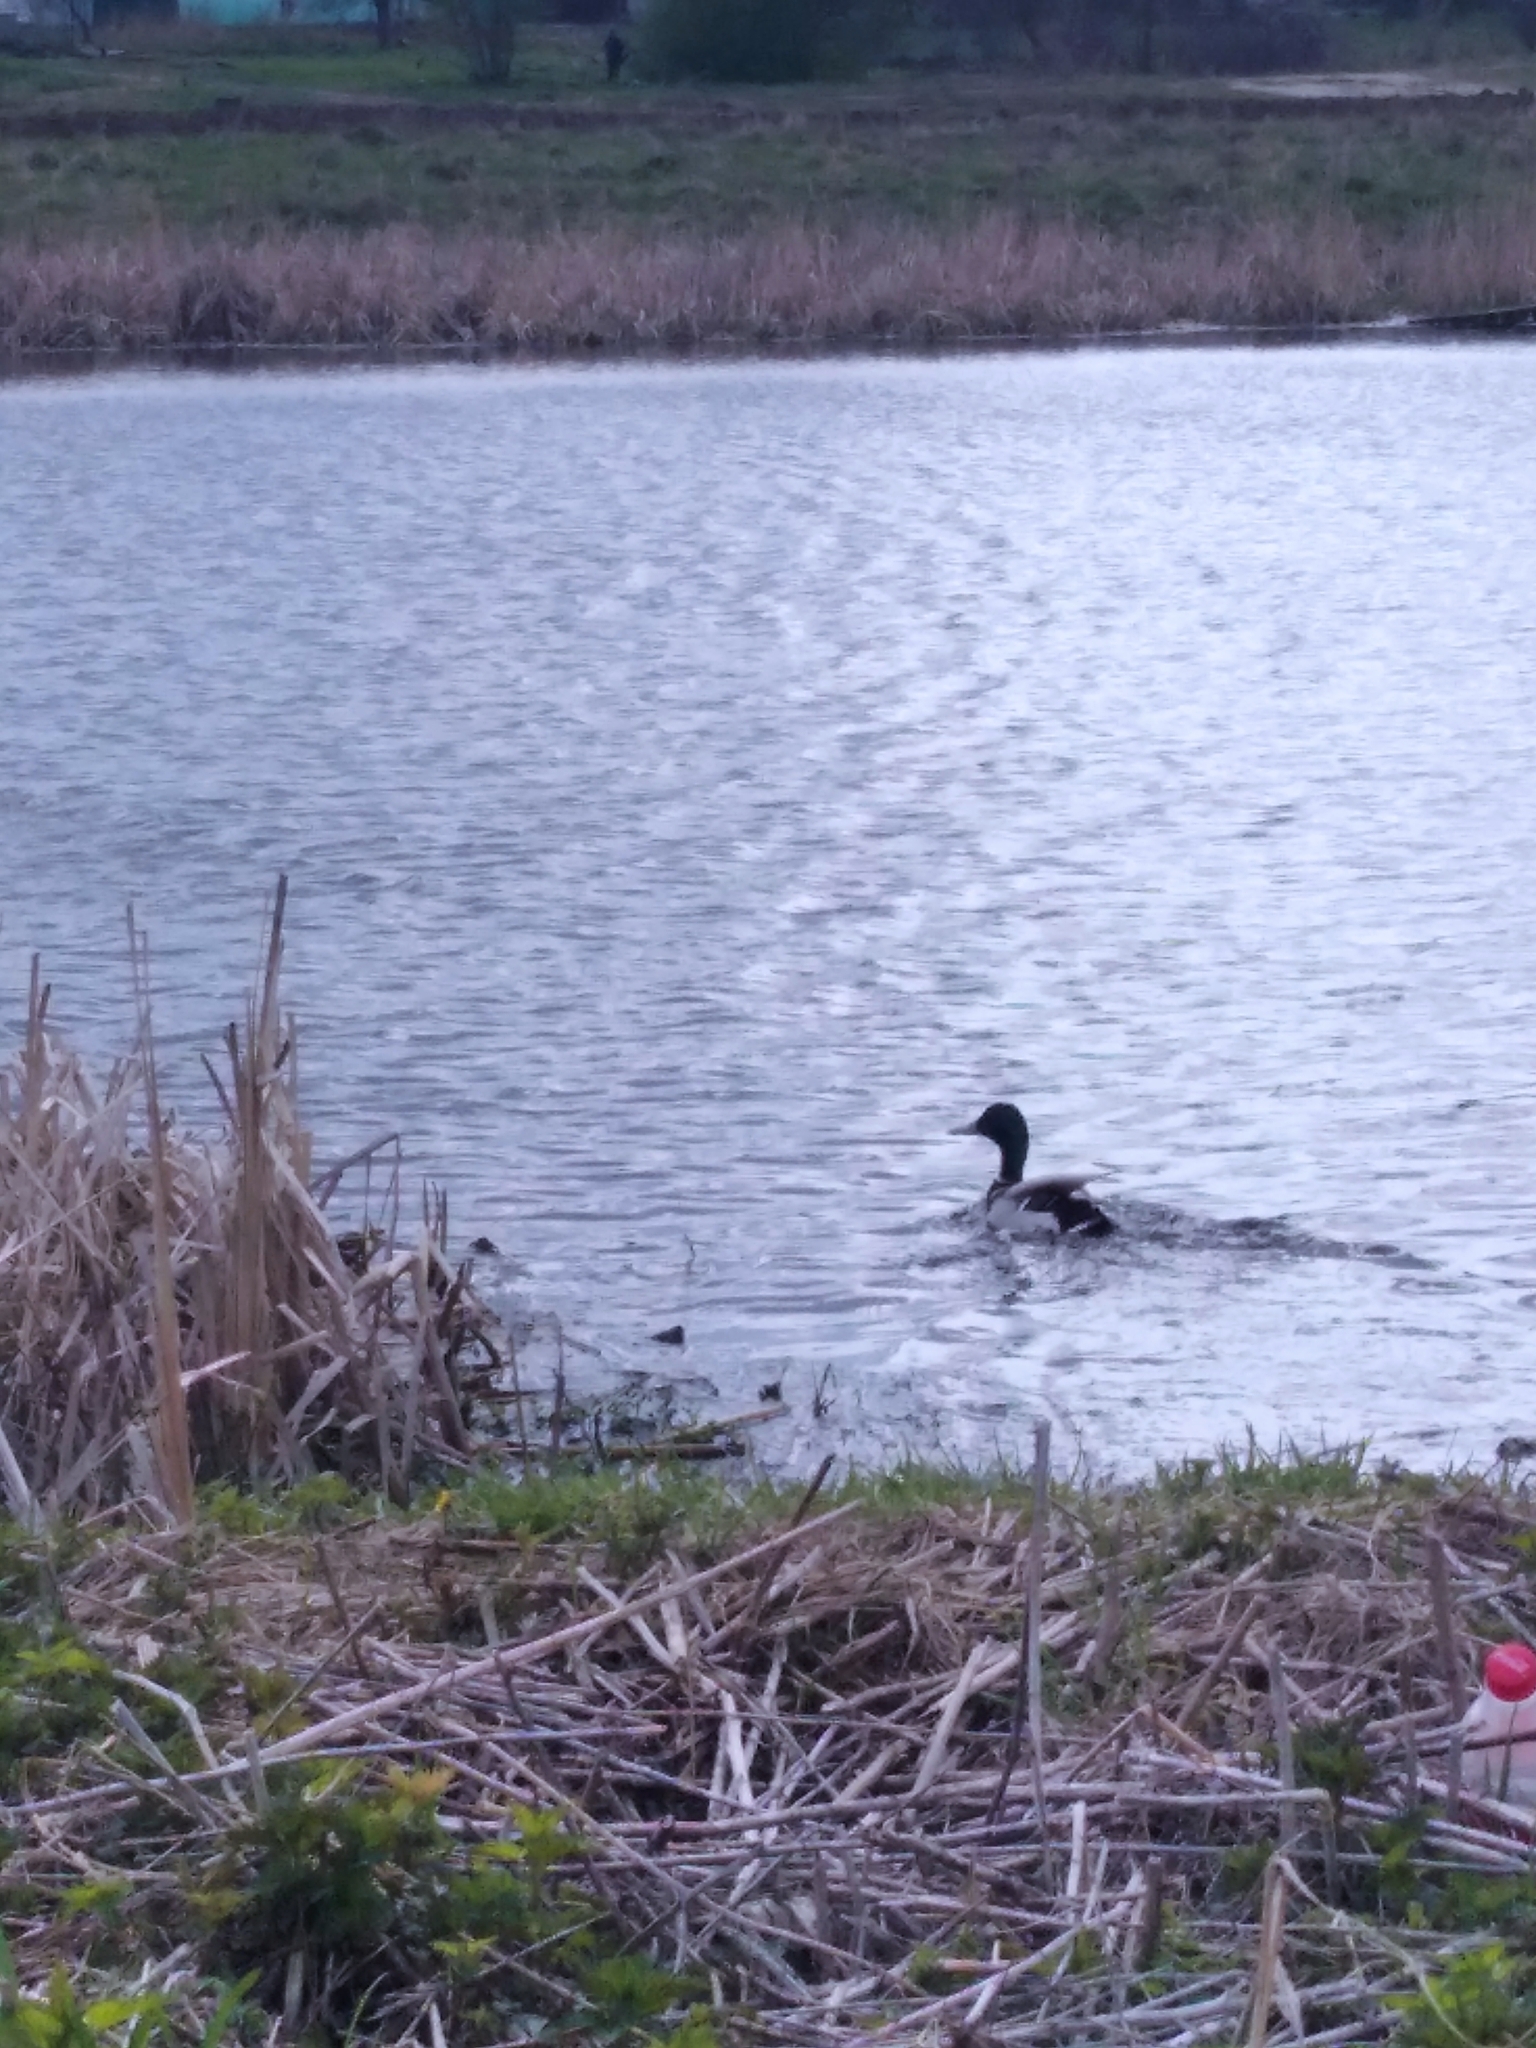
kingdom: Animalia
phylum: Chordata
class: Aves
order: Anseriformes
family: Anatidae
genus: Anas
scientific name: Anas platyrhynchos
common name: Mallard
